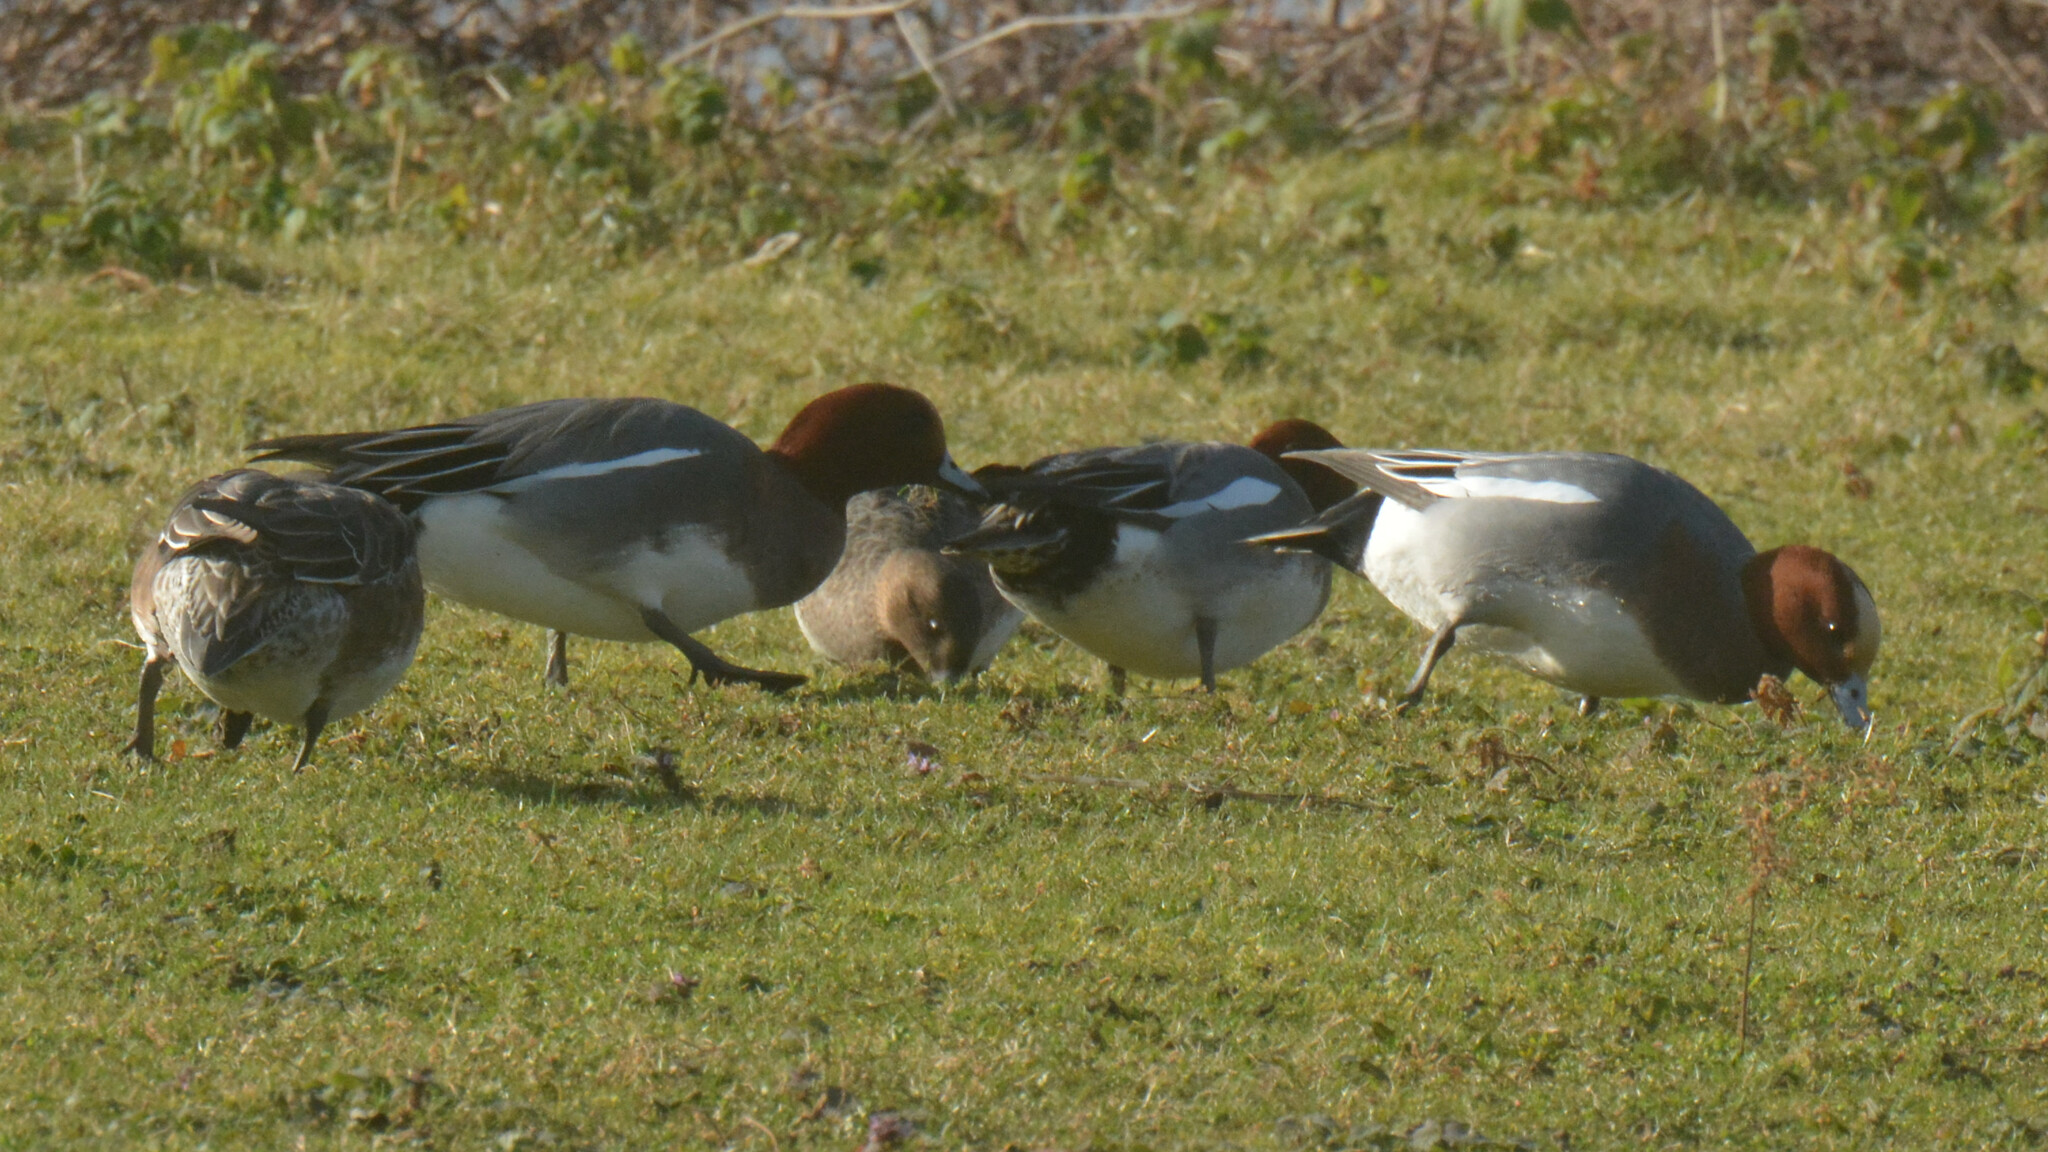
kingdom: Animalia
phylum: Chordata
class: Aves
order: Anseriformes
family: Anatidae
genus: Mareca
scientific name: Mareca penelope
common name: Eurasian wigeon
